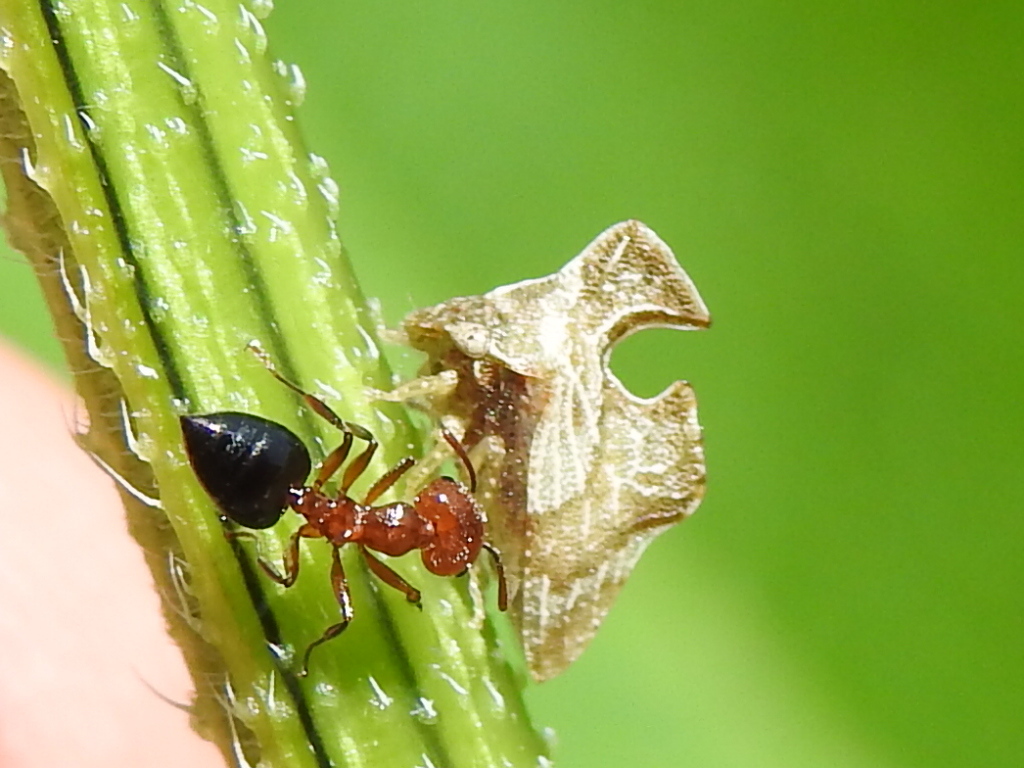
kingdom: Animalia
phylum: Arthropoda
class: Insecta
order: Hemiptera
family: Membracidae
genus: Entylia
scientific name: Entylia carinata
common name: Keeled treehopper
